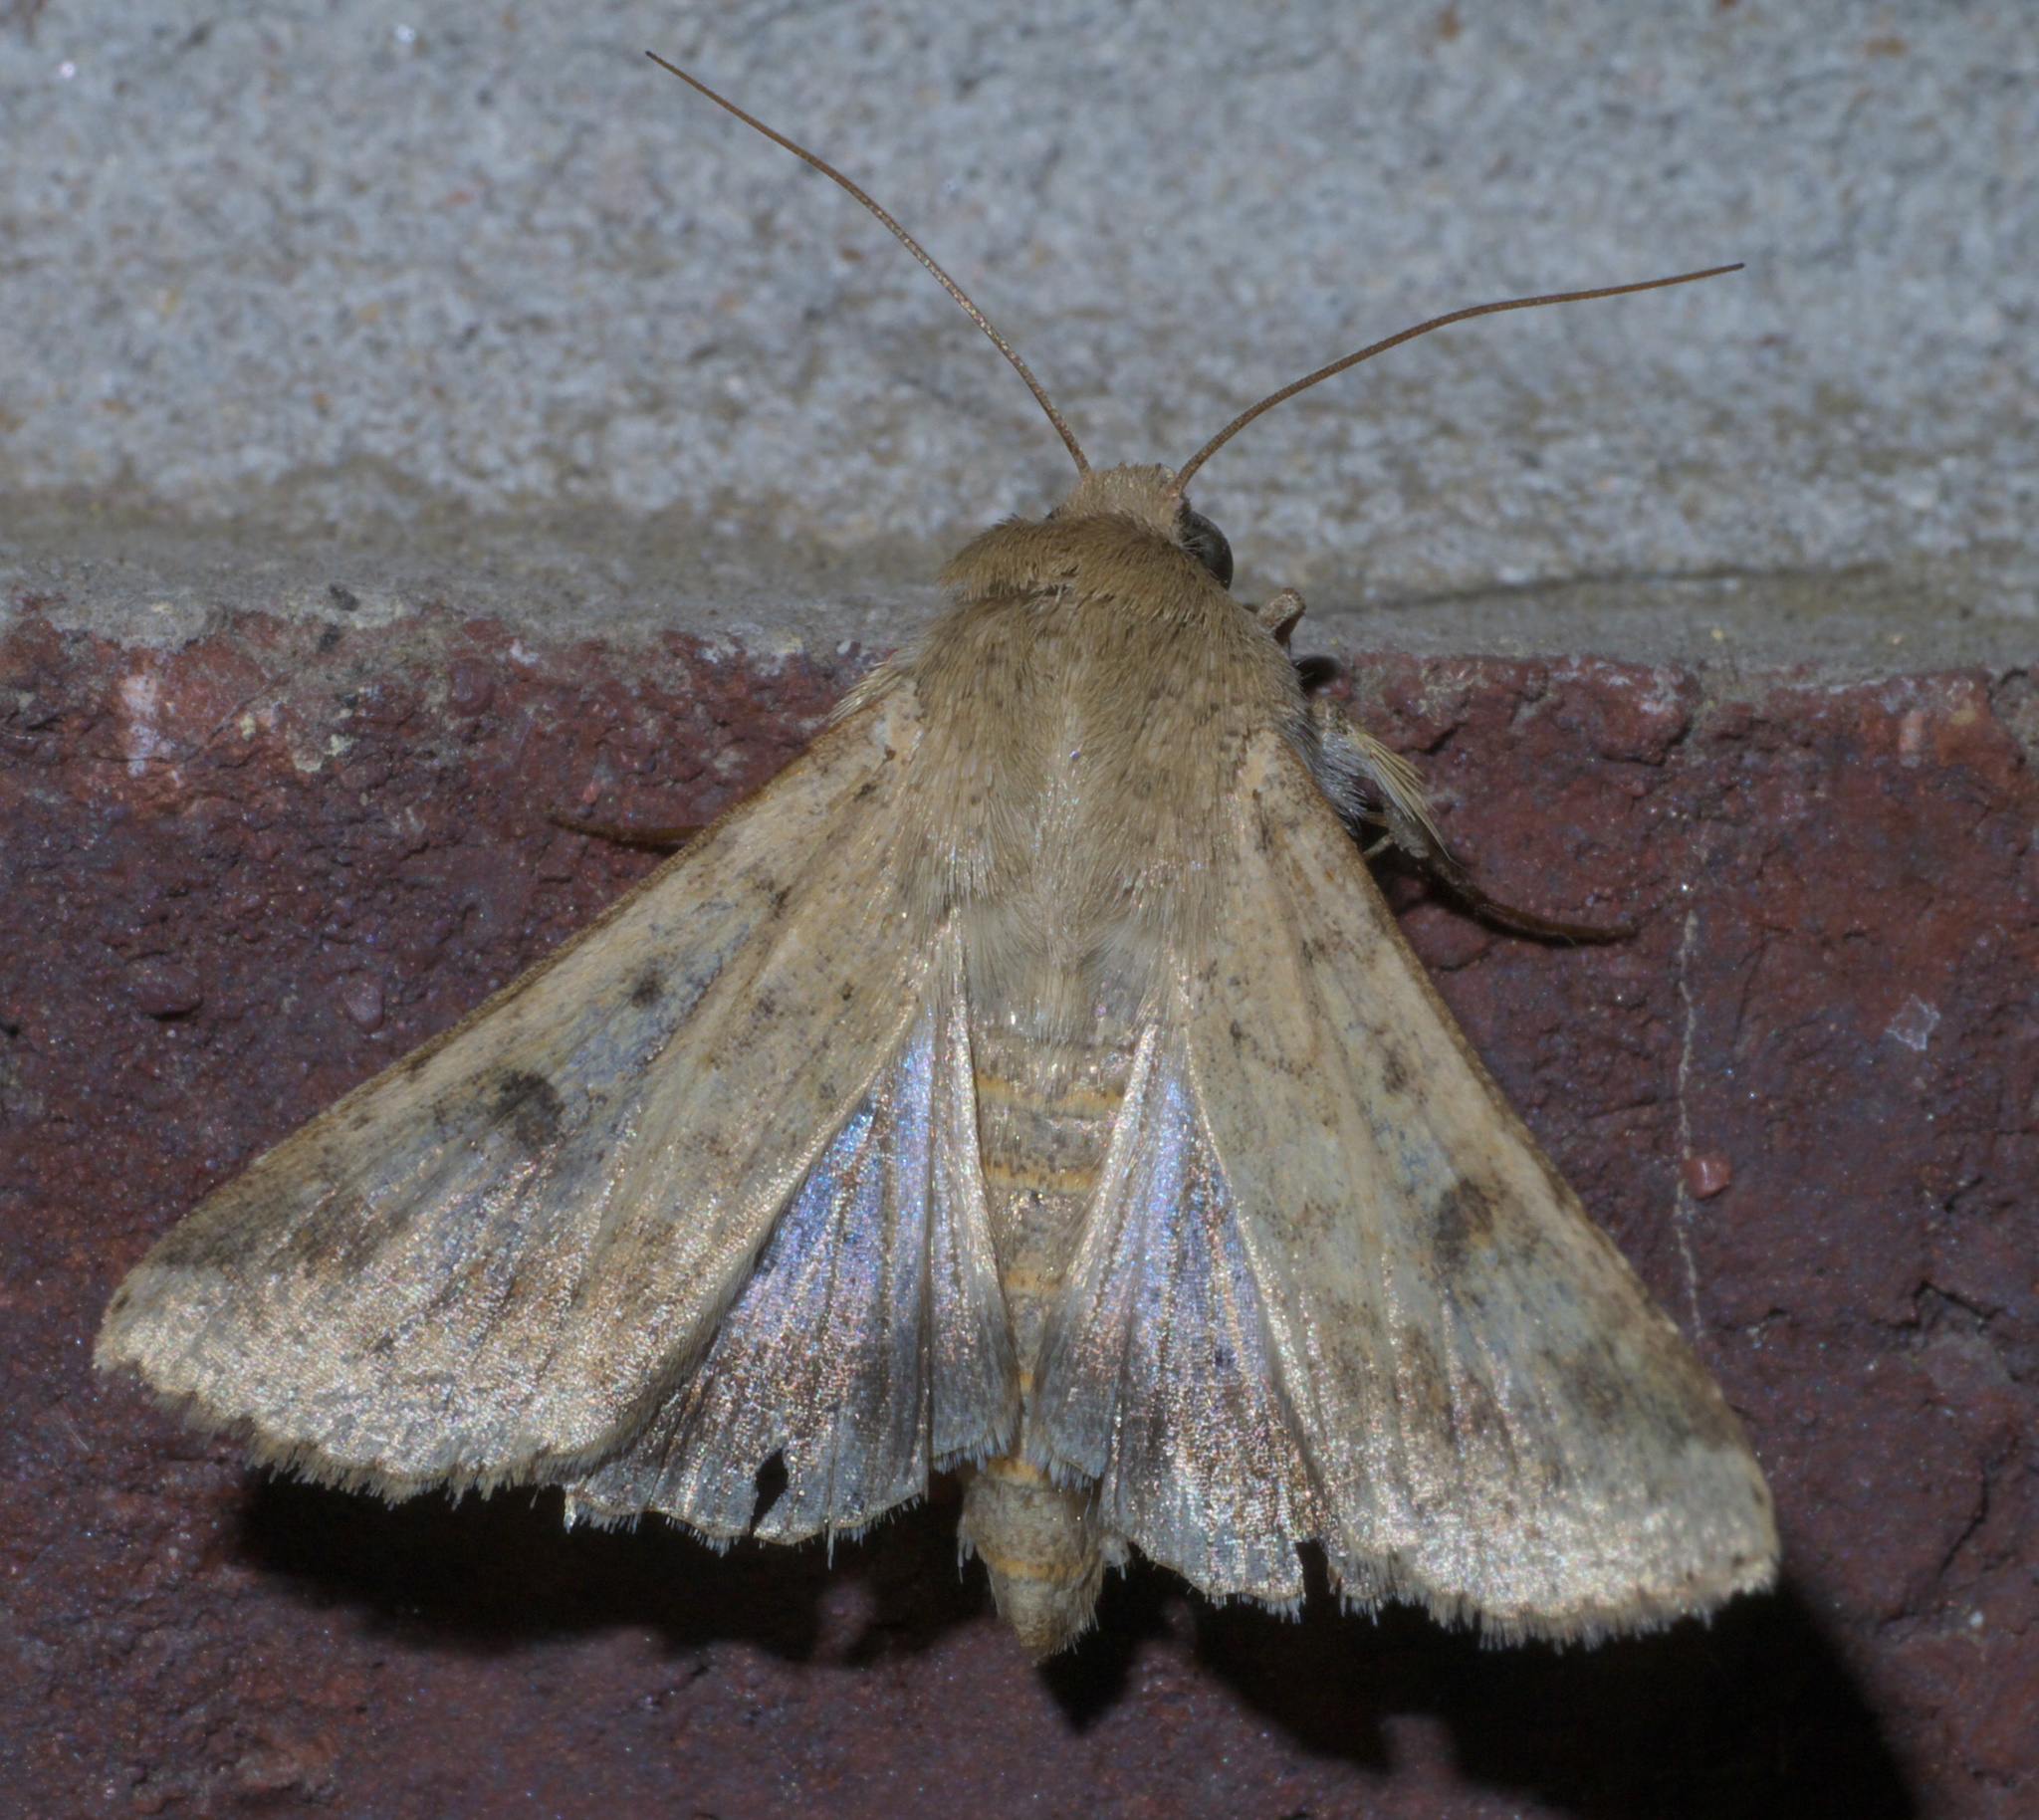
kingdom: Animalia
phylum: Arthropoda
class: Insecta
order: Lepidoptera
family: Noctuidae
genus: Helicoverpa
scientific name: Helicoverpa zea
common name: Bollworm
